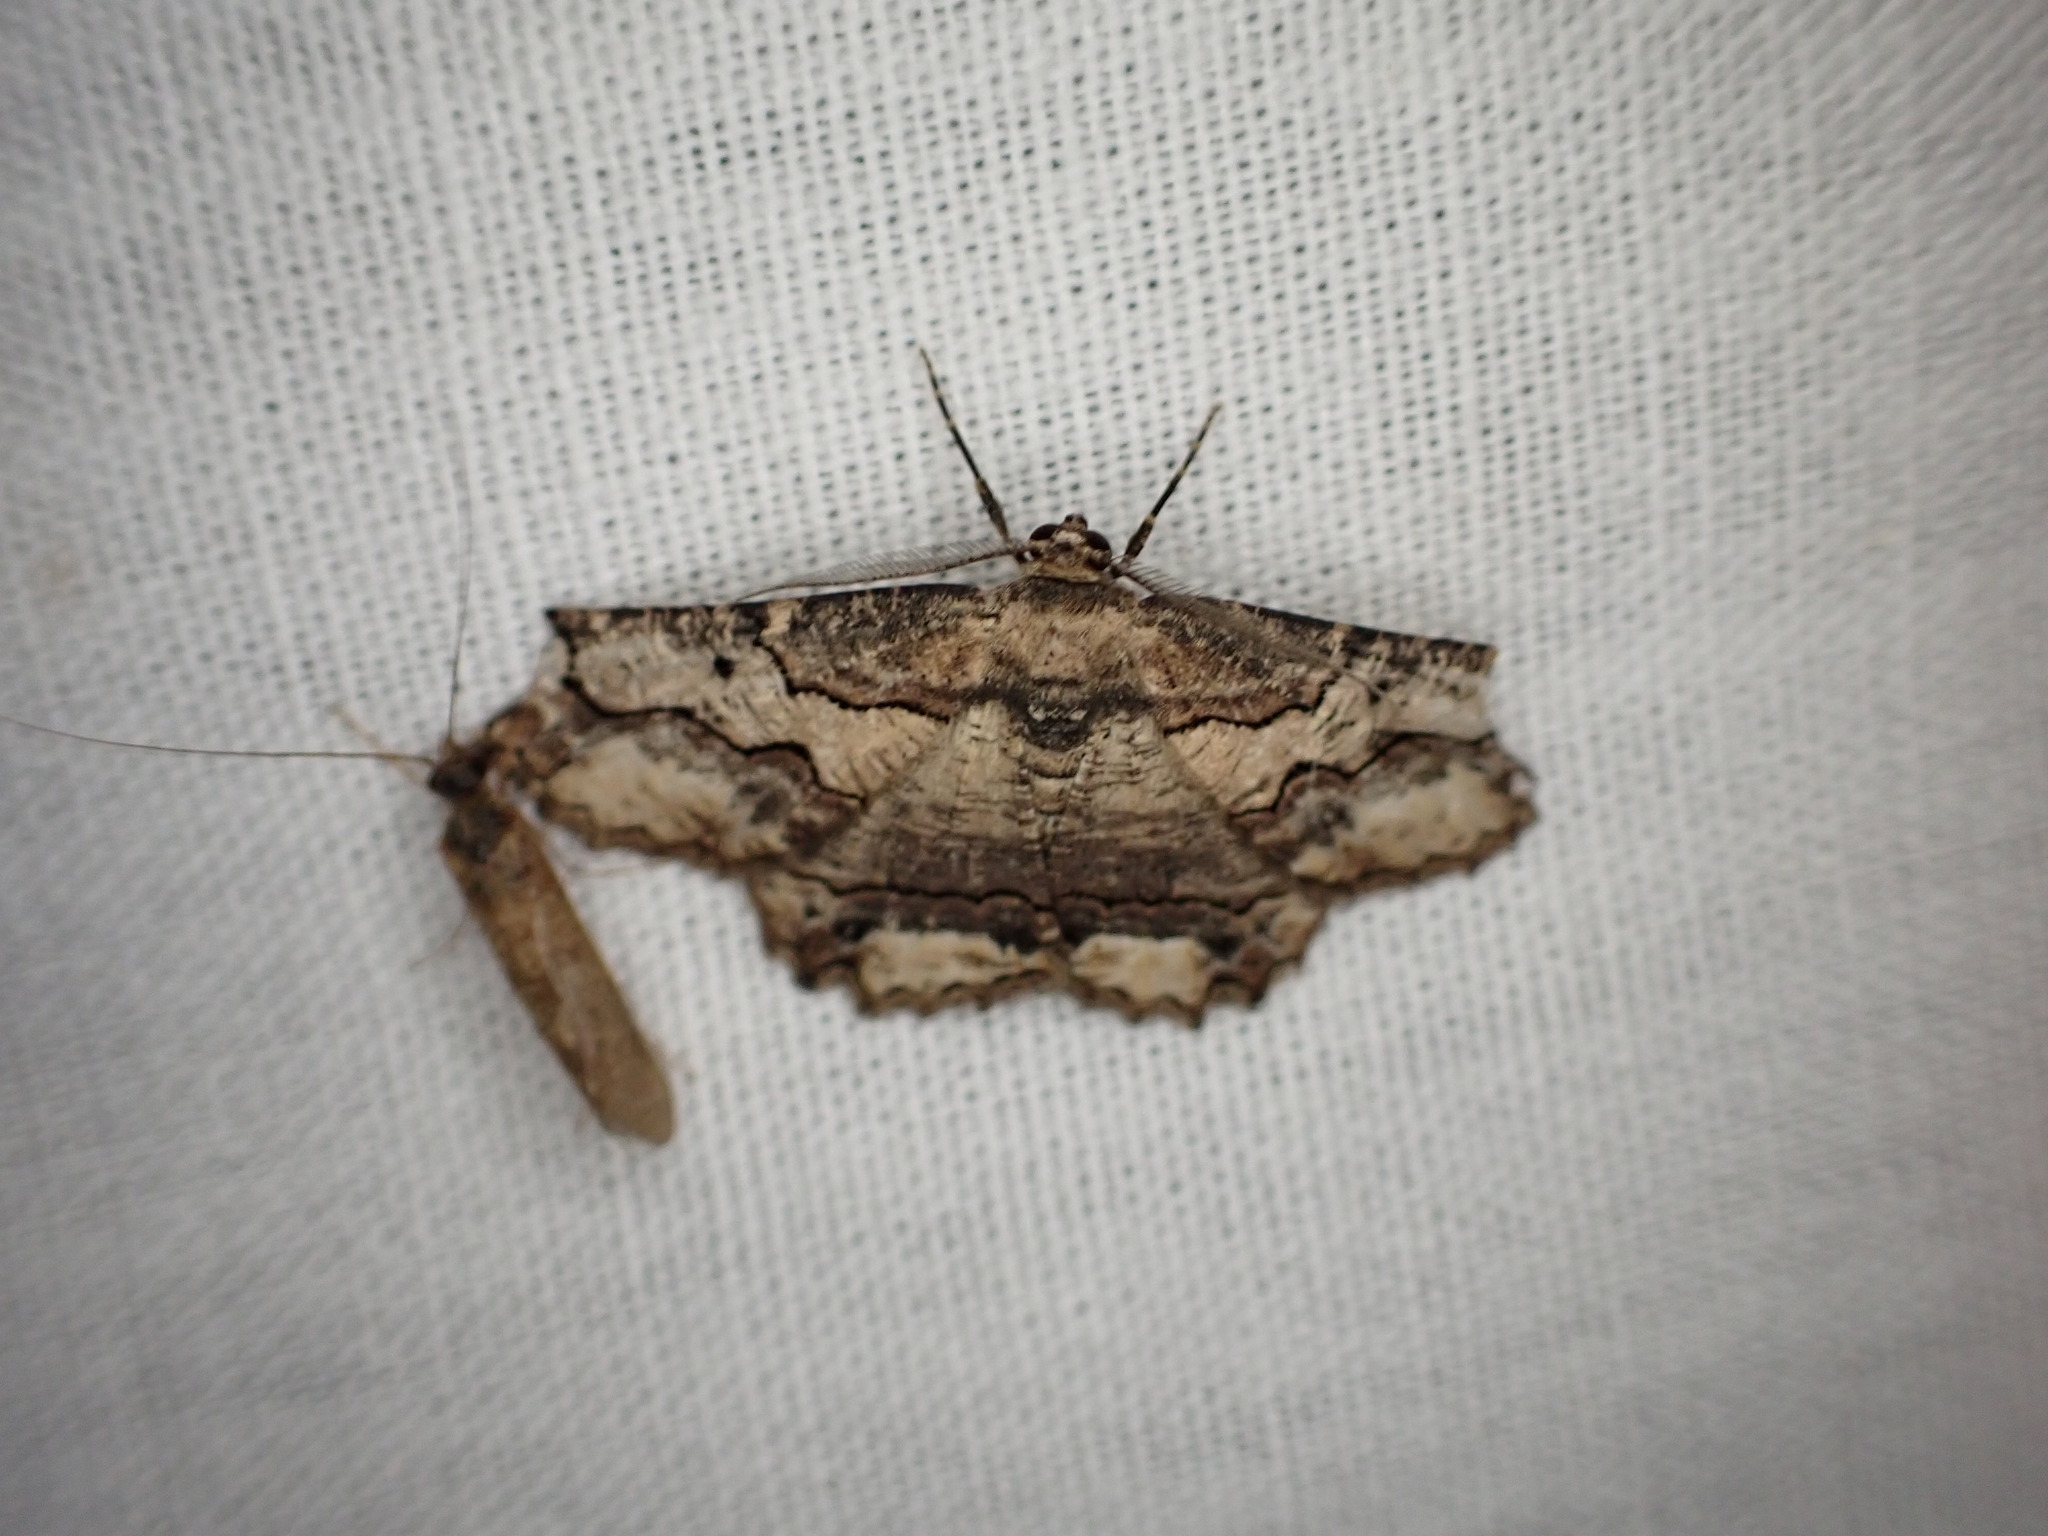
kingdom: Animalia
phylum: Arthropoda
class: Insecta
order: Lepidoptera
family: Geometridae
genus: Menophra
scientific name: Menophra japygiaria
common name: Brassy waved umber
